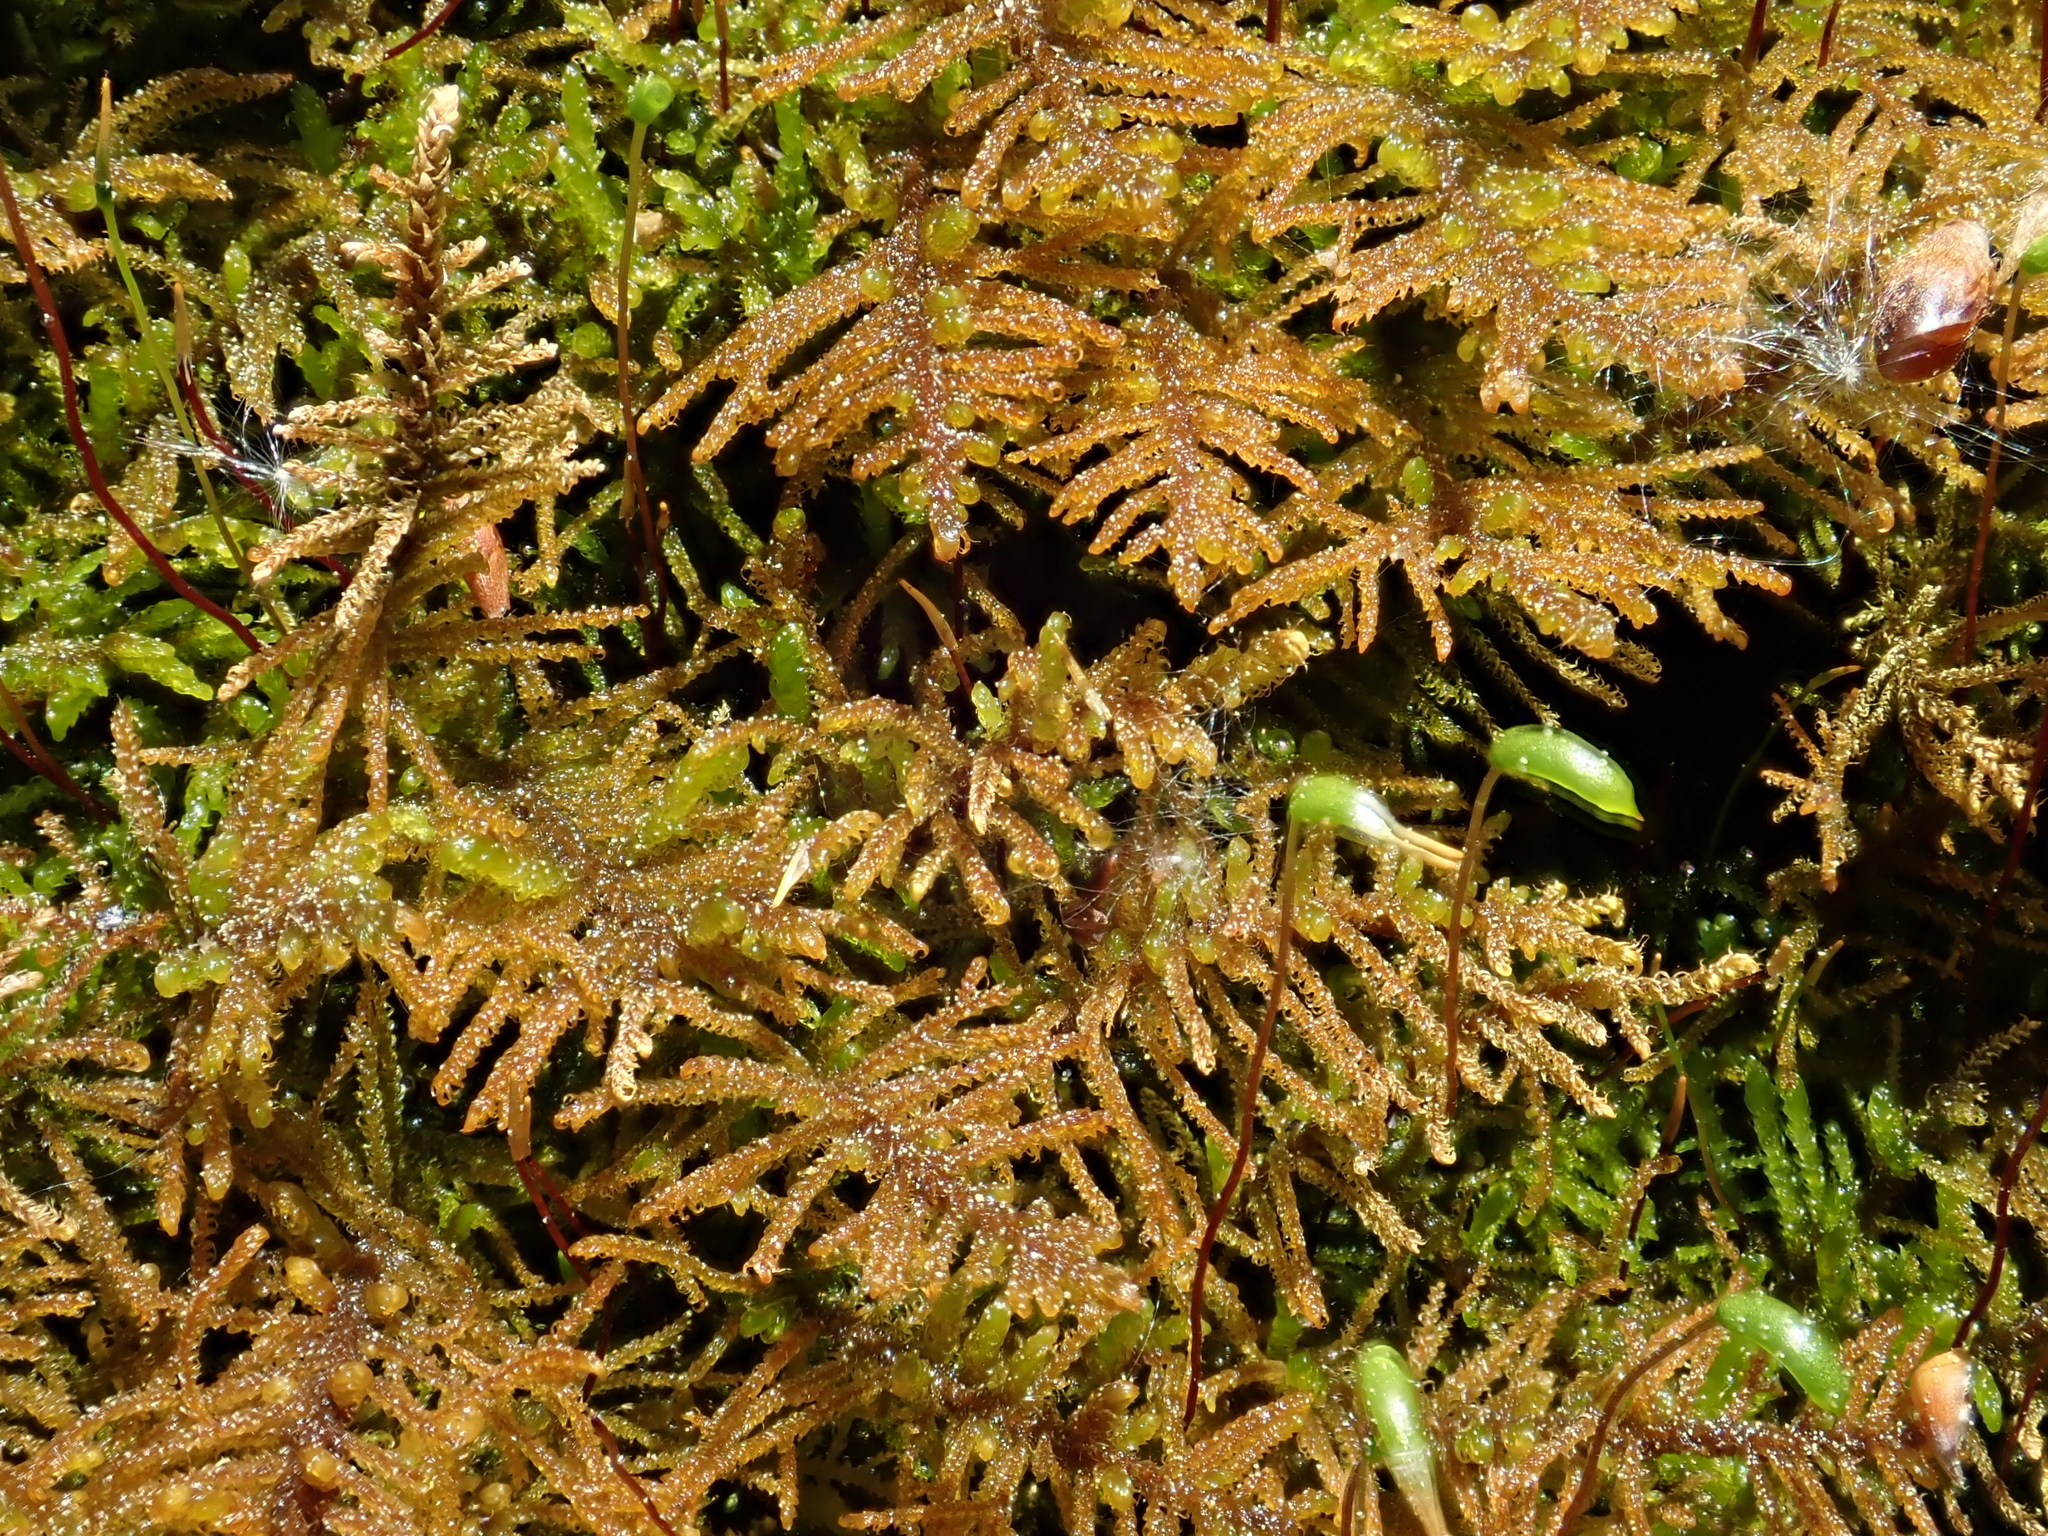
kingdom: Plantae
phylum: Bryophyta
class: Bryopsida
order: Hypnales
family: Amblystegiaceae
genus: Palustriella
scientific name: Palustriella commutata
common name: Curled hook-moss
